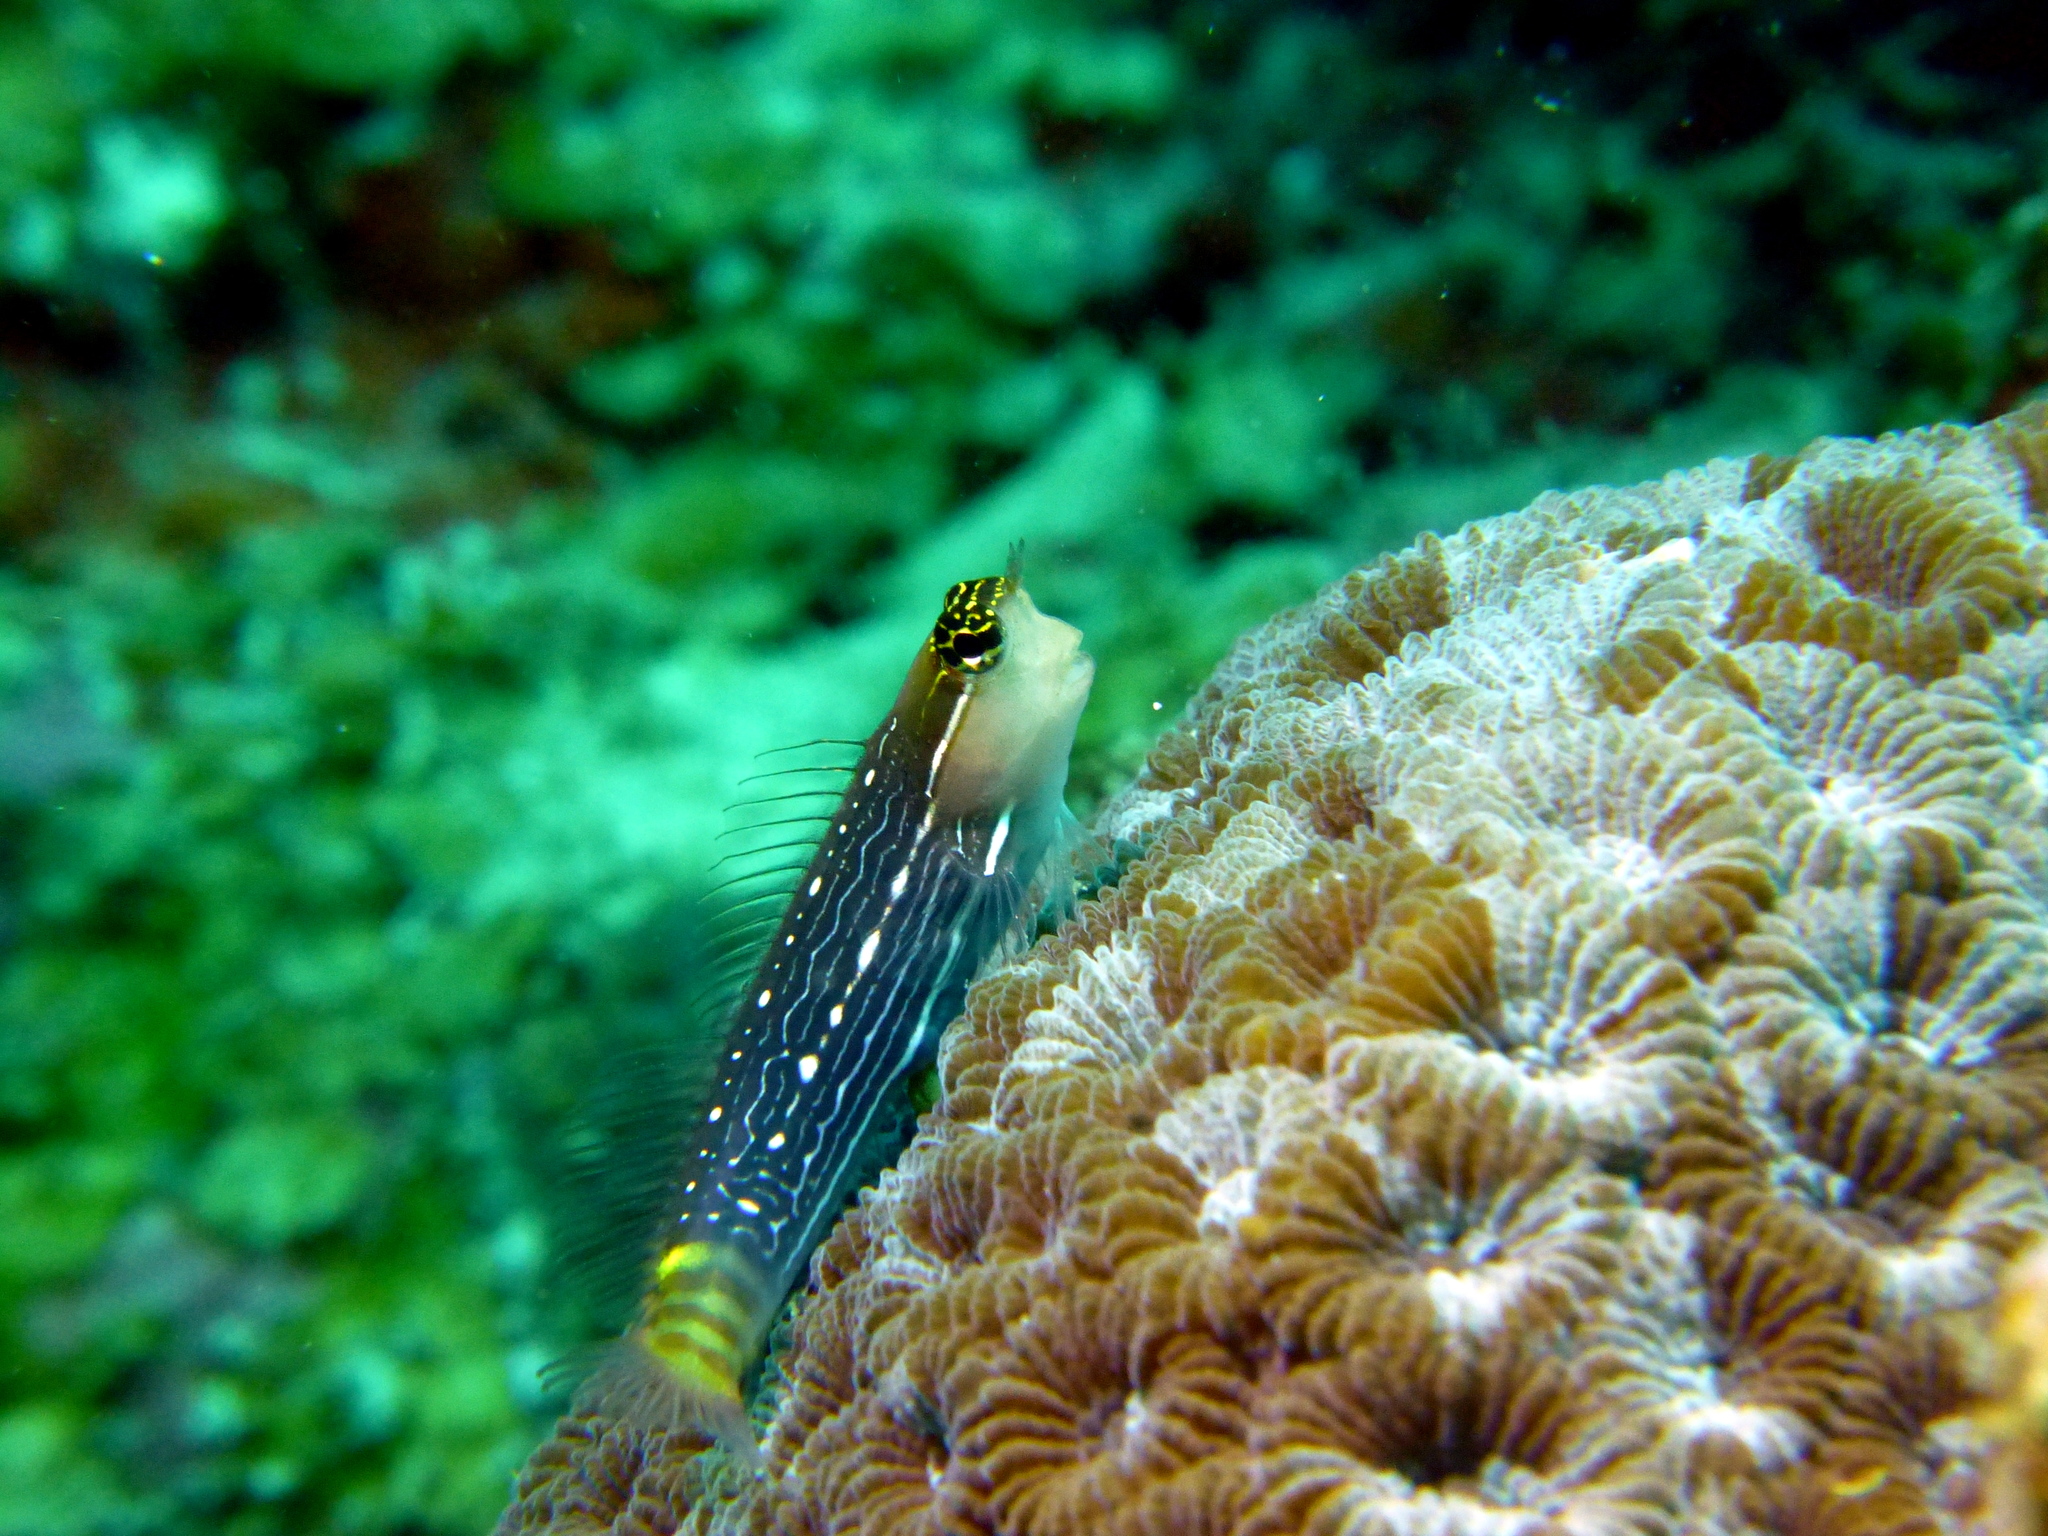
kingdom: Animalia
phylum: Chordata
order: Perciformes
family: Blenniidae
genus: Ecsenius
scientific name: Ecsenius pictus
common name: Pictus blenny
